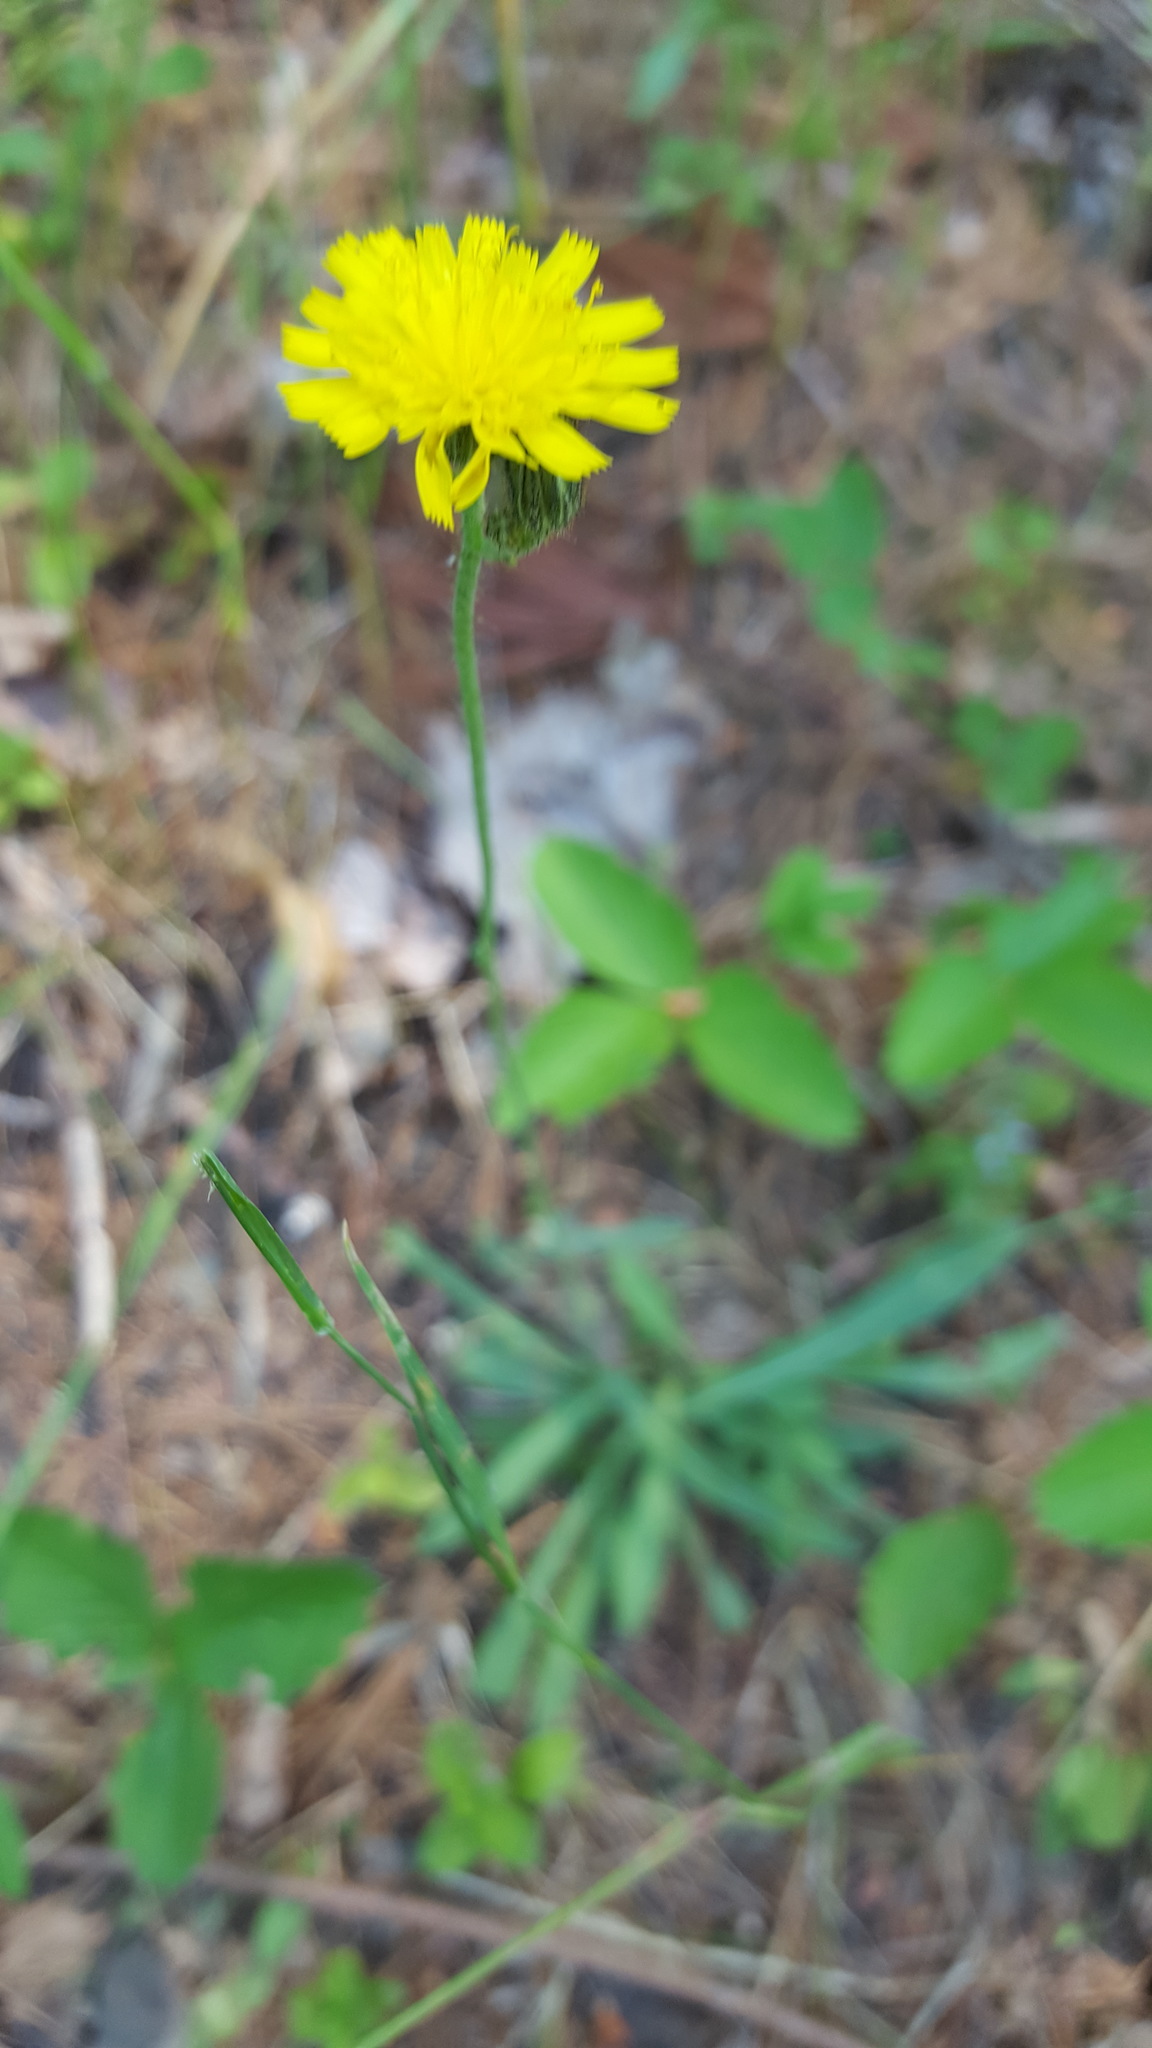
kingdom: Plantae
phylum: Tracheophyta
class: Magnoliopsida
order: Asterales
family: Asteraceae
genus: Pilosella
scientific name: Pilosella piloselloides
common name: Glaucous king-devil
